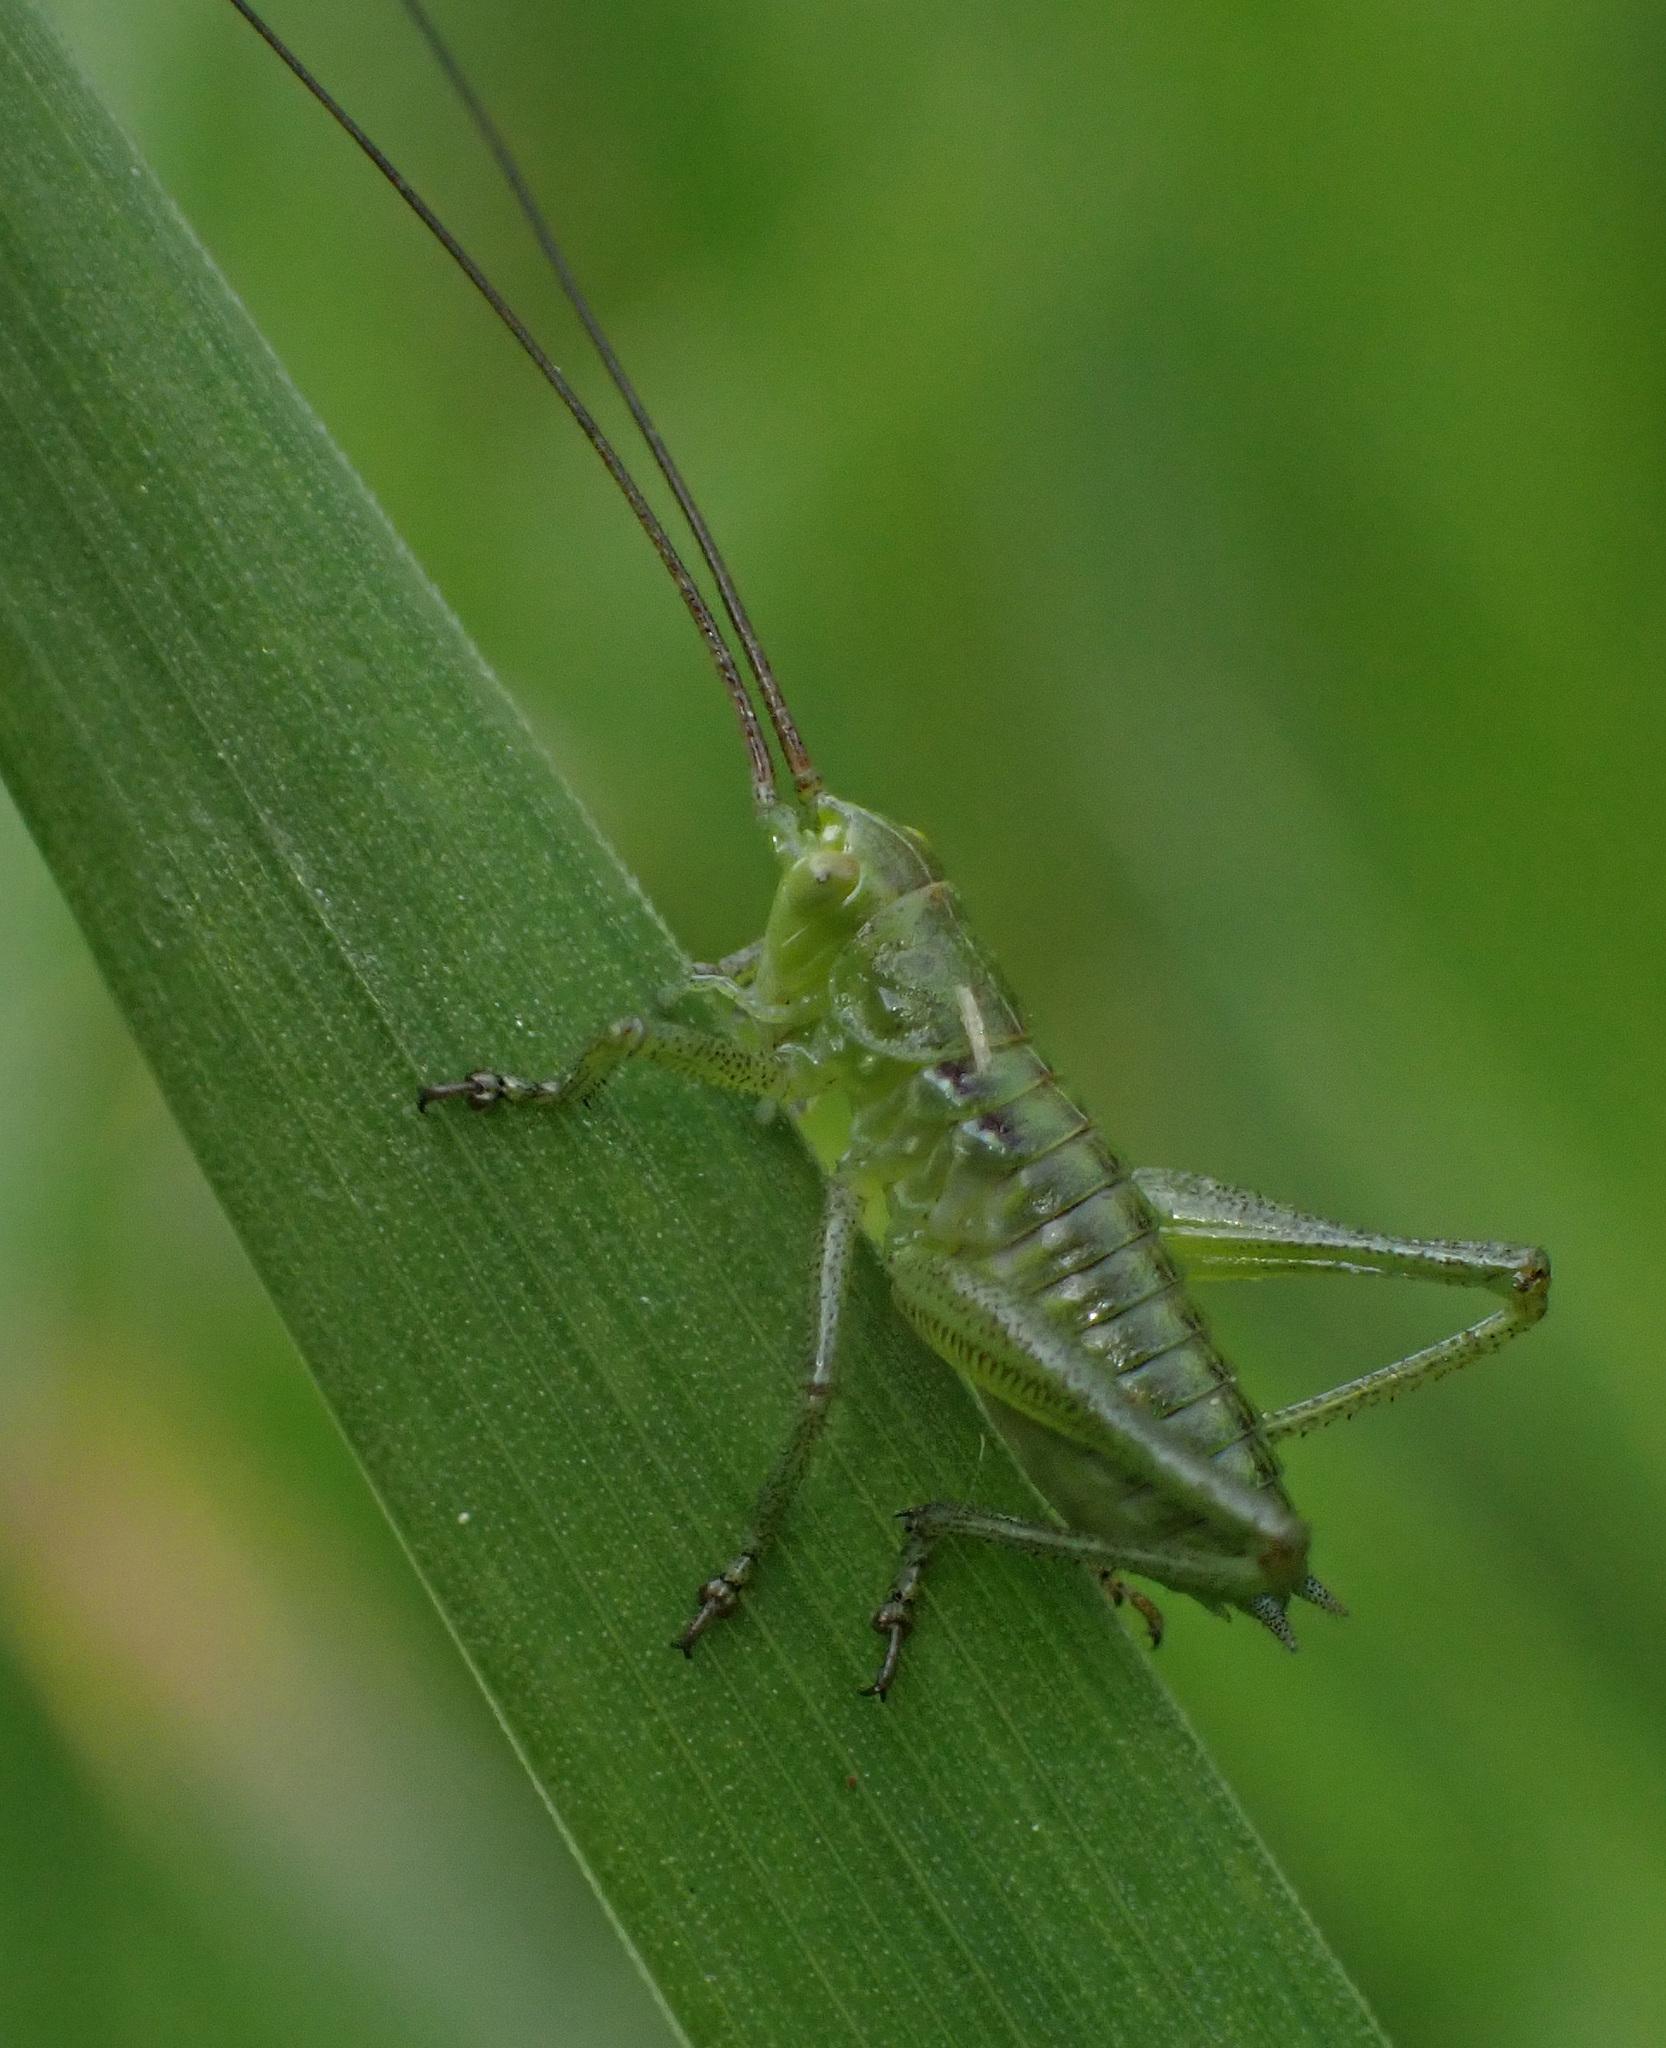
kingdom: Animalia
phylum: Arthropoda
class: Insecta
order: Orthoptera
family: Tettigoniidae
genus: Tettigonia
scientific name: Tettigonia viridissima
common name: Great green bush-cricket
